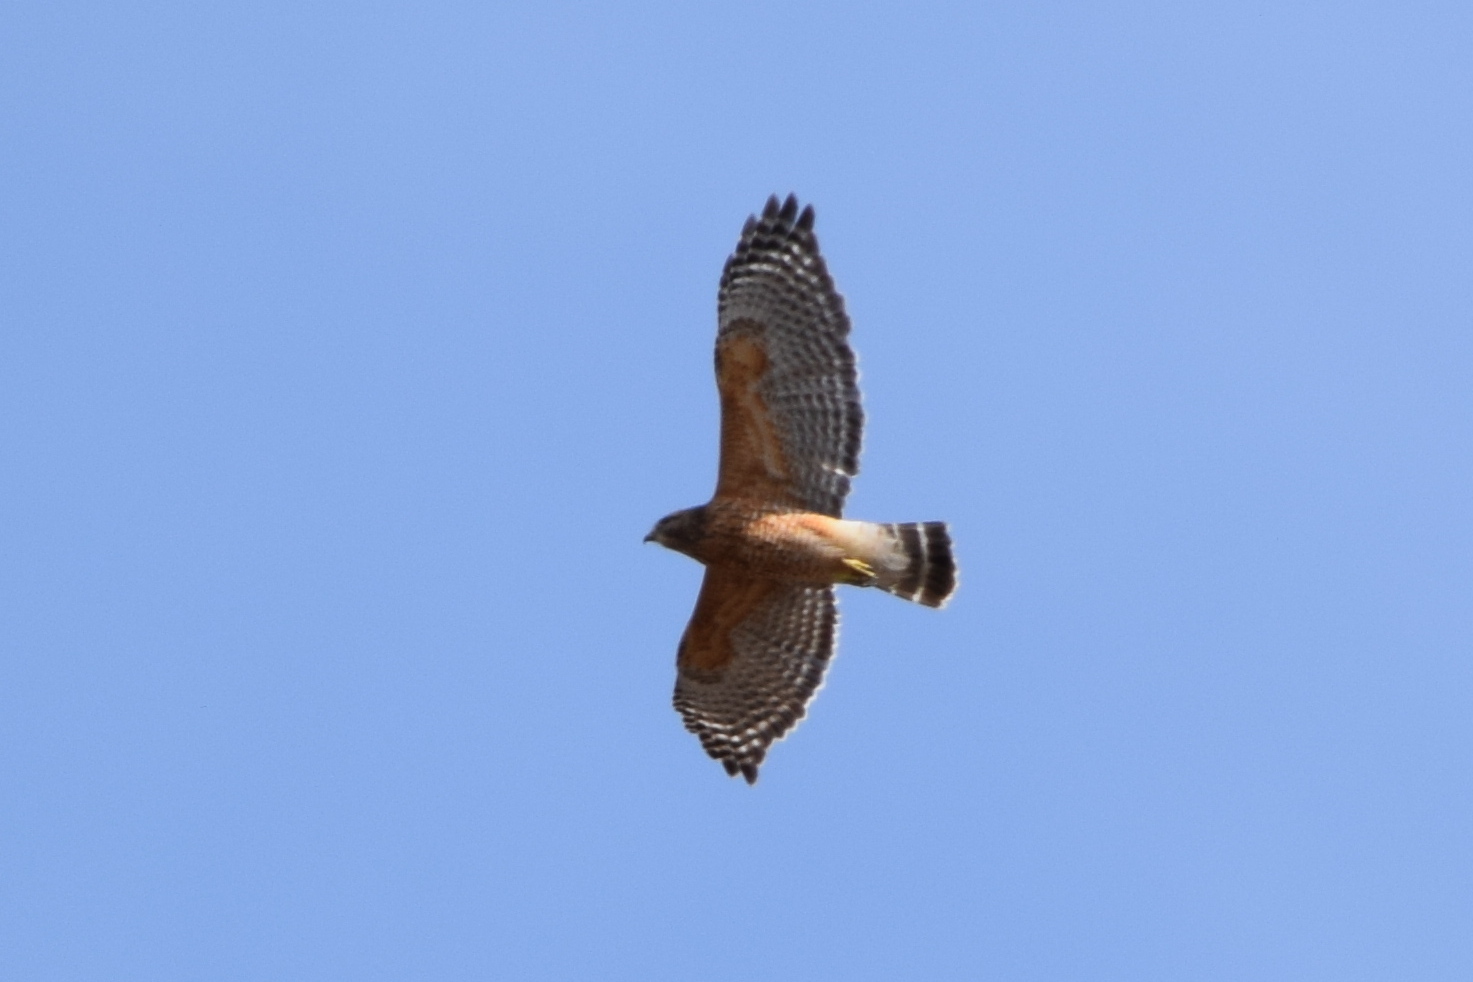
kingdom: Animalia
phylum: Chordata
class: Aves
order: Accipitriformes
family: Accipitridae
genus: Buteo
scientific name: Buteo lineatus
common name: Red-shouldered hawk
